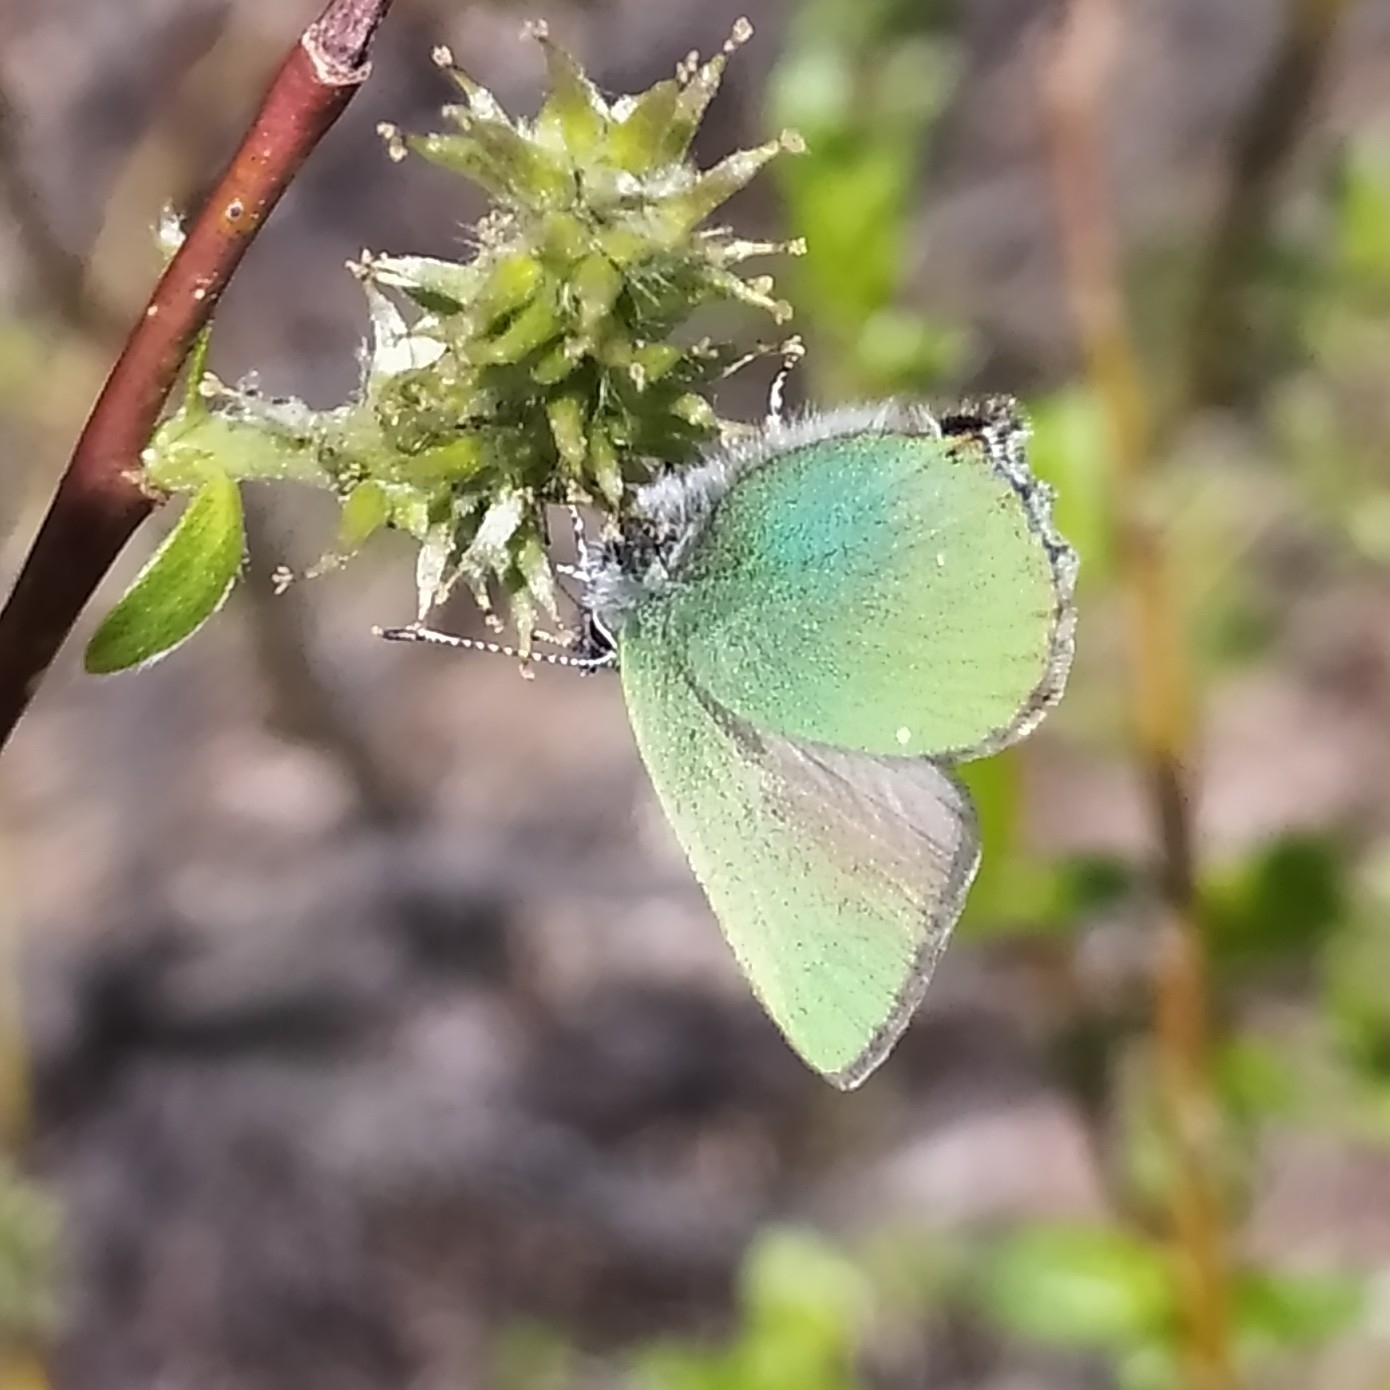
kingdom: Animalia
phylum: Arthropoda
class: Insecta
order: Lepidoptera
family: Lycaenidae
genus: Callophrys
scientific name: Callophrys rubi
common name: Green hairstreak
